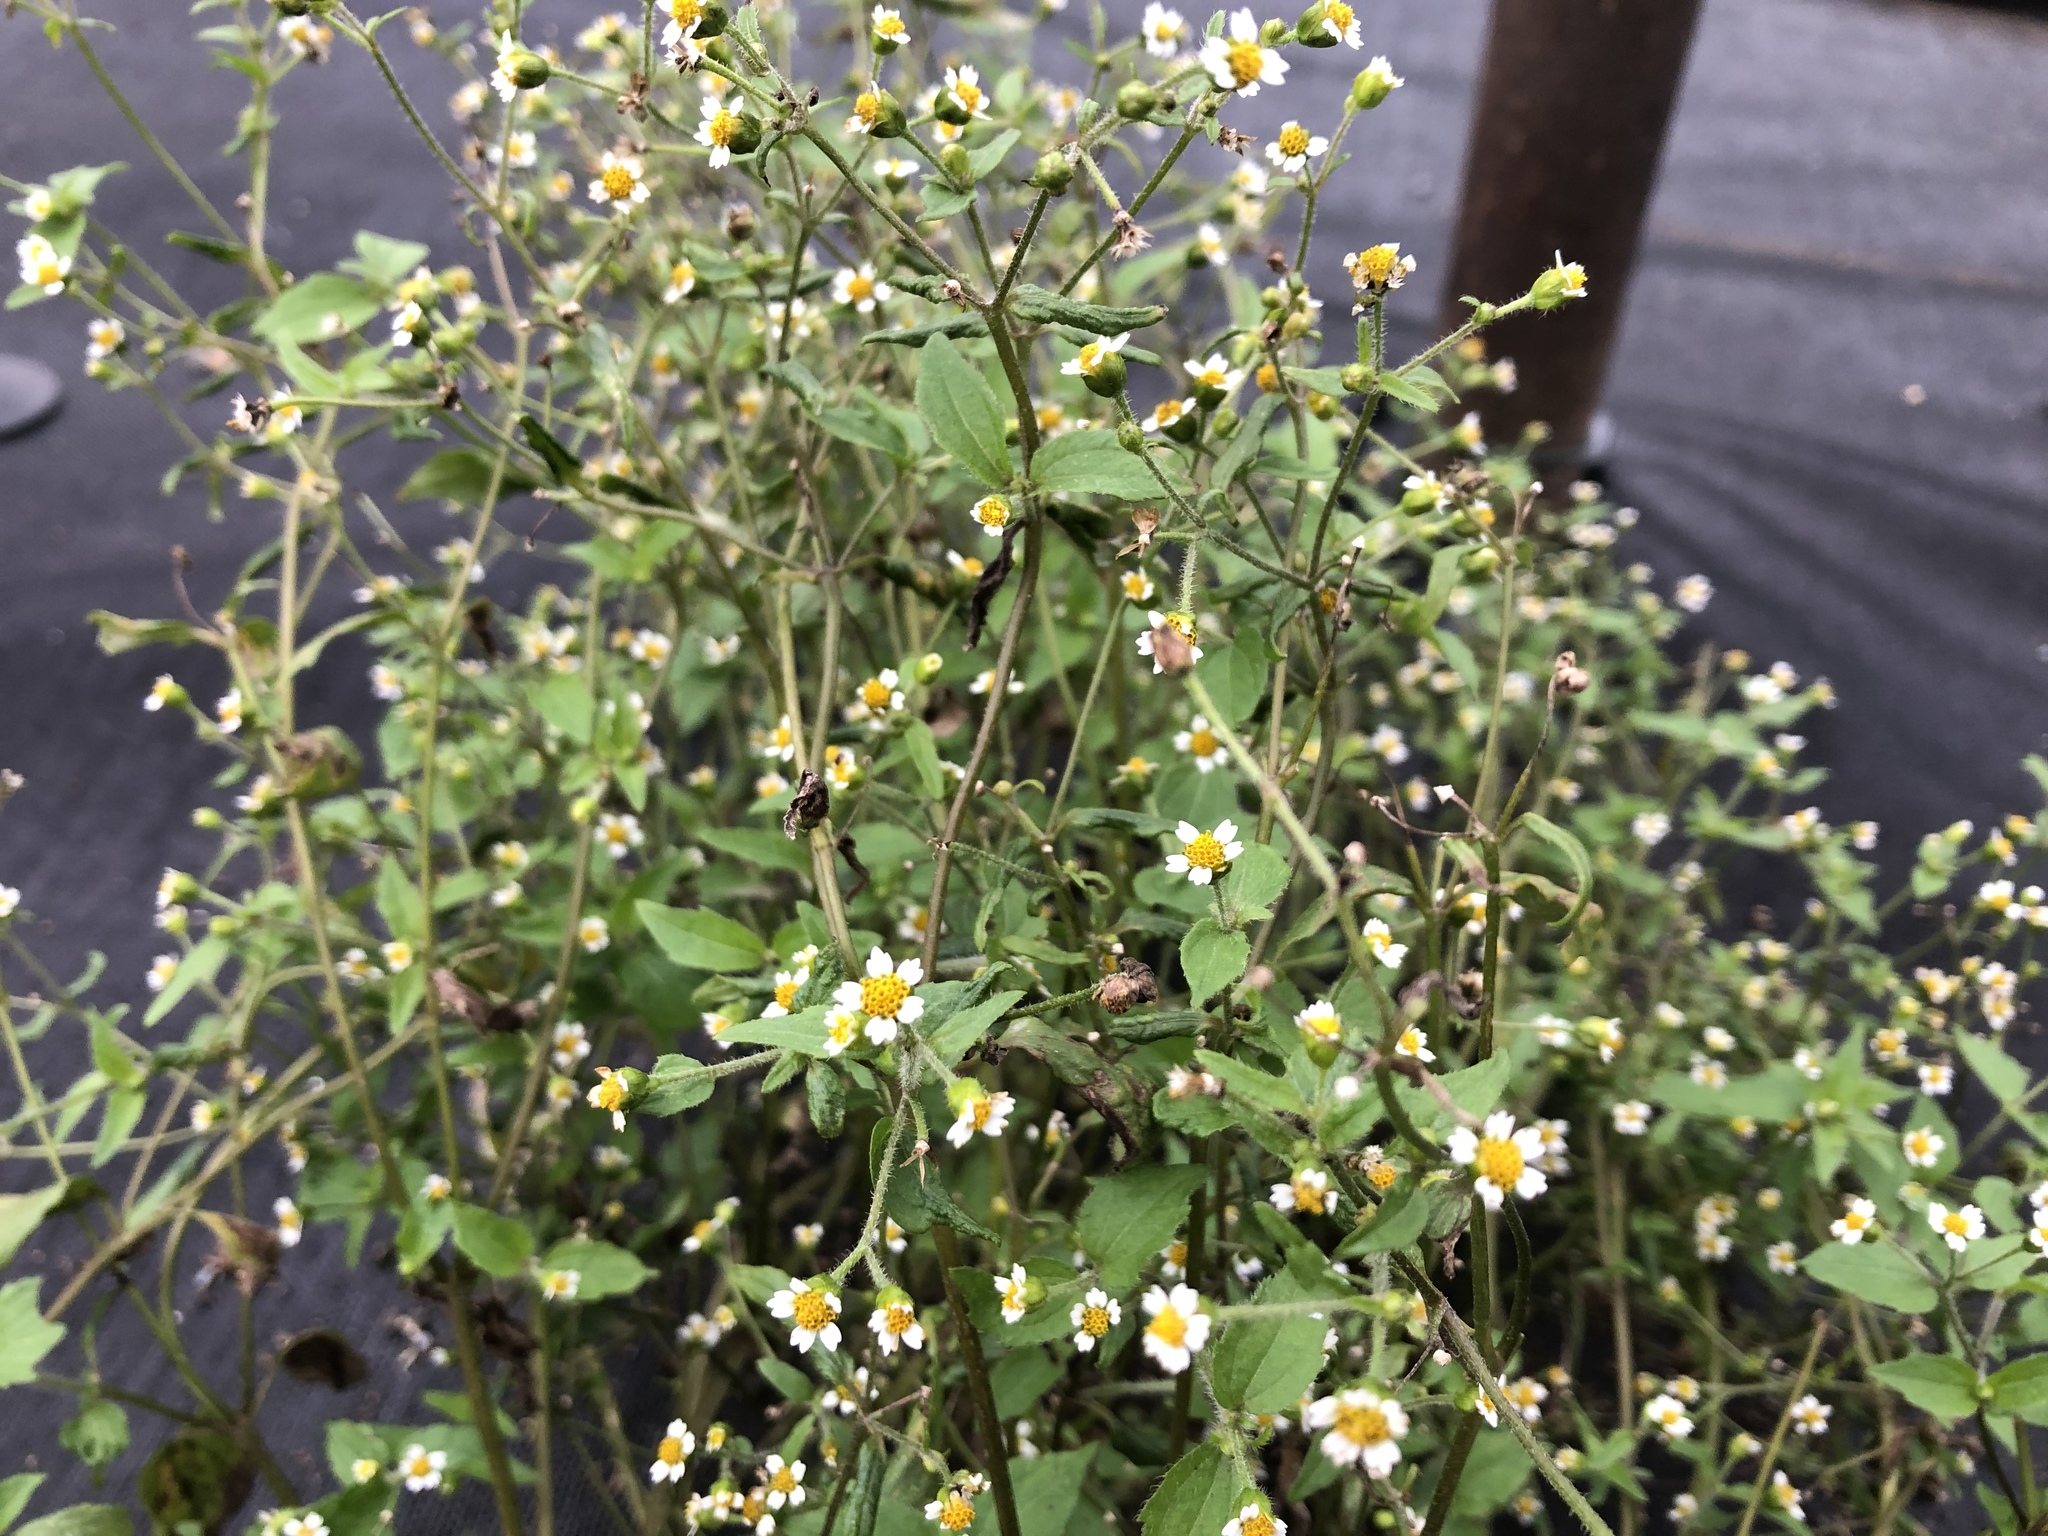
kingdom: Plantae
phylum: Tracheophyta
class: Magnoliopsida
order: Asterales
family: Asteraceae
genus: Galinsoga
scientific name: Galinsoga quadriradiata
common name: Shaggy soldier
